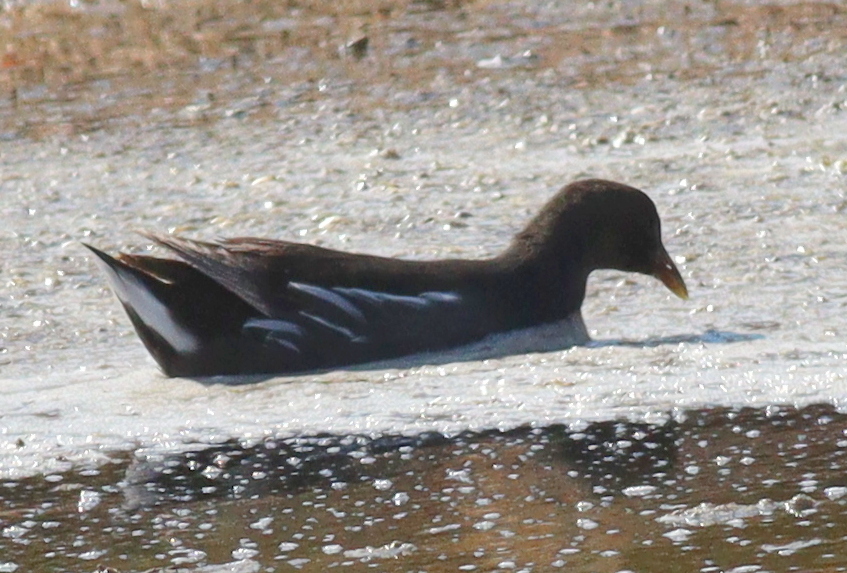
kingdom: Animalia
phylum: Chordata
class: Aves
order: Gruiformes
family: Rallidae
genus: Gallinula
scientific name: Gallinula chloropus
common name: Common moorhen
